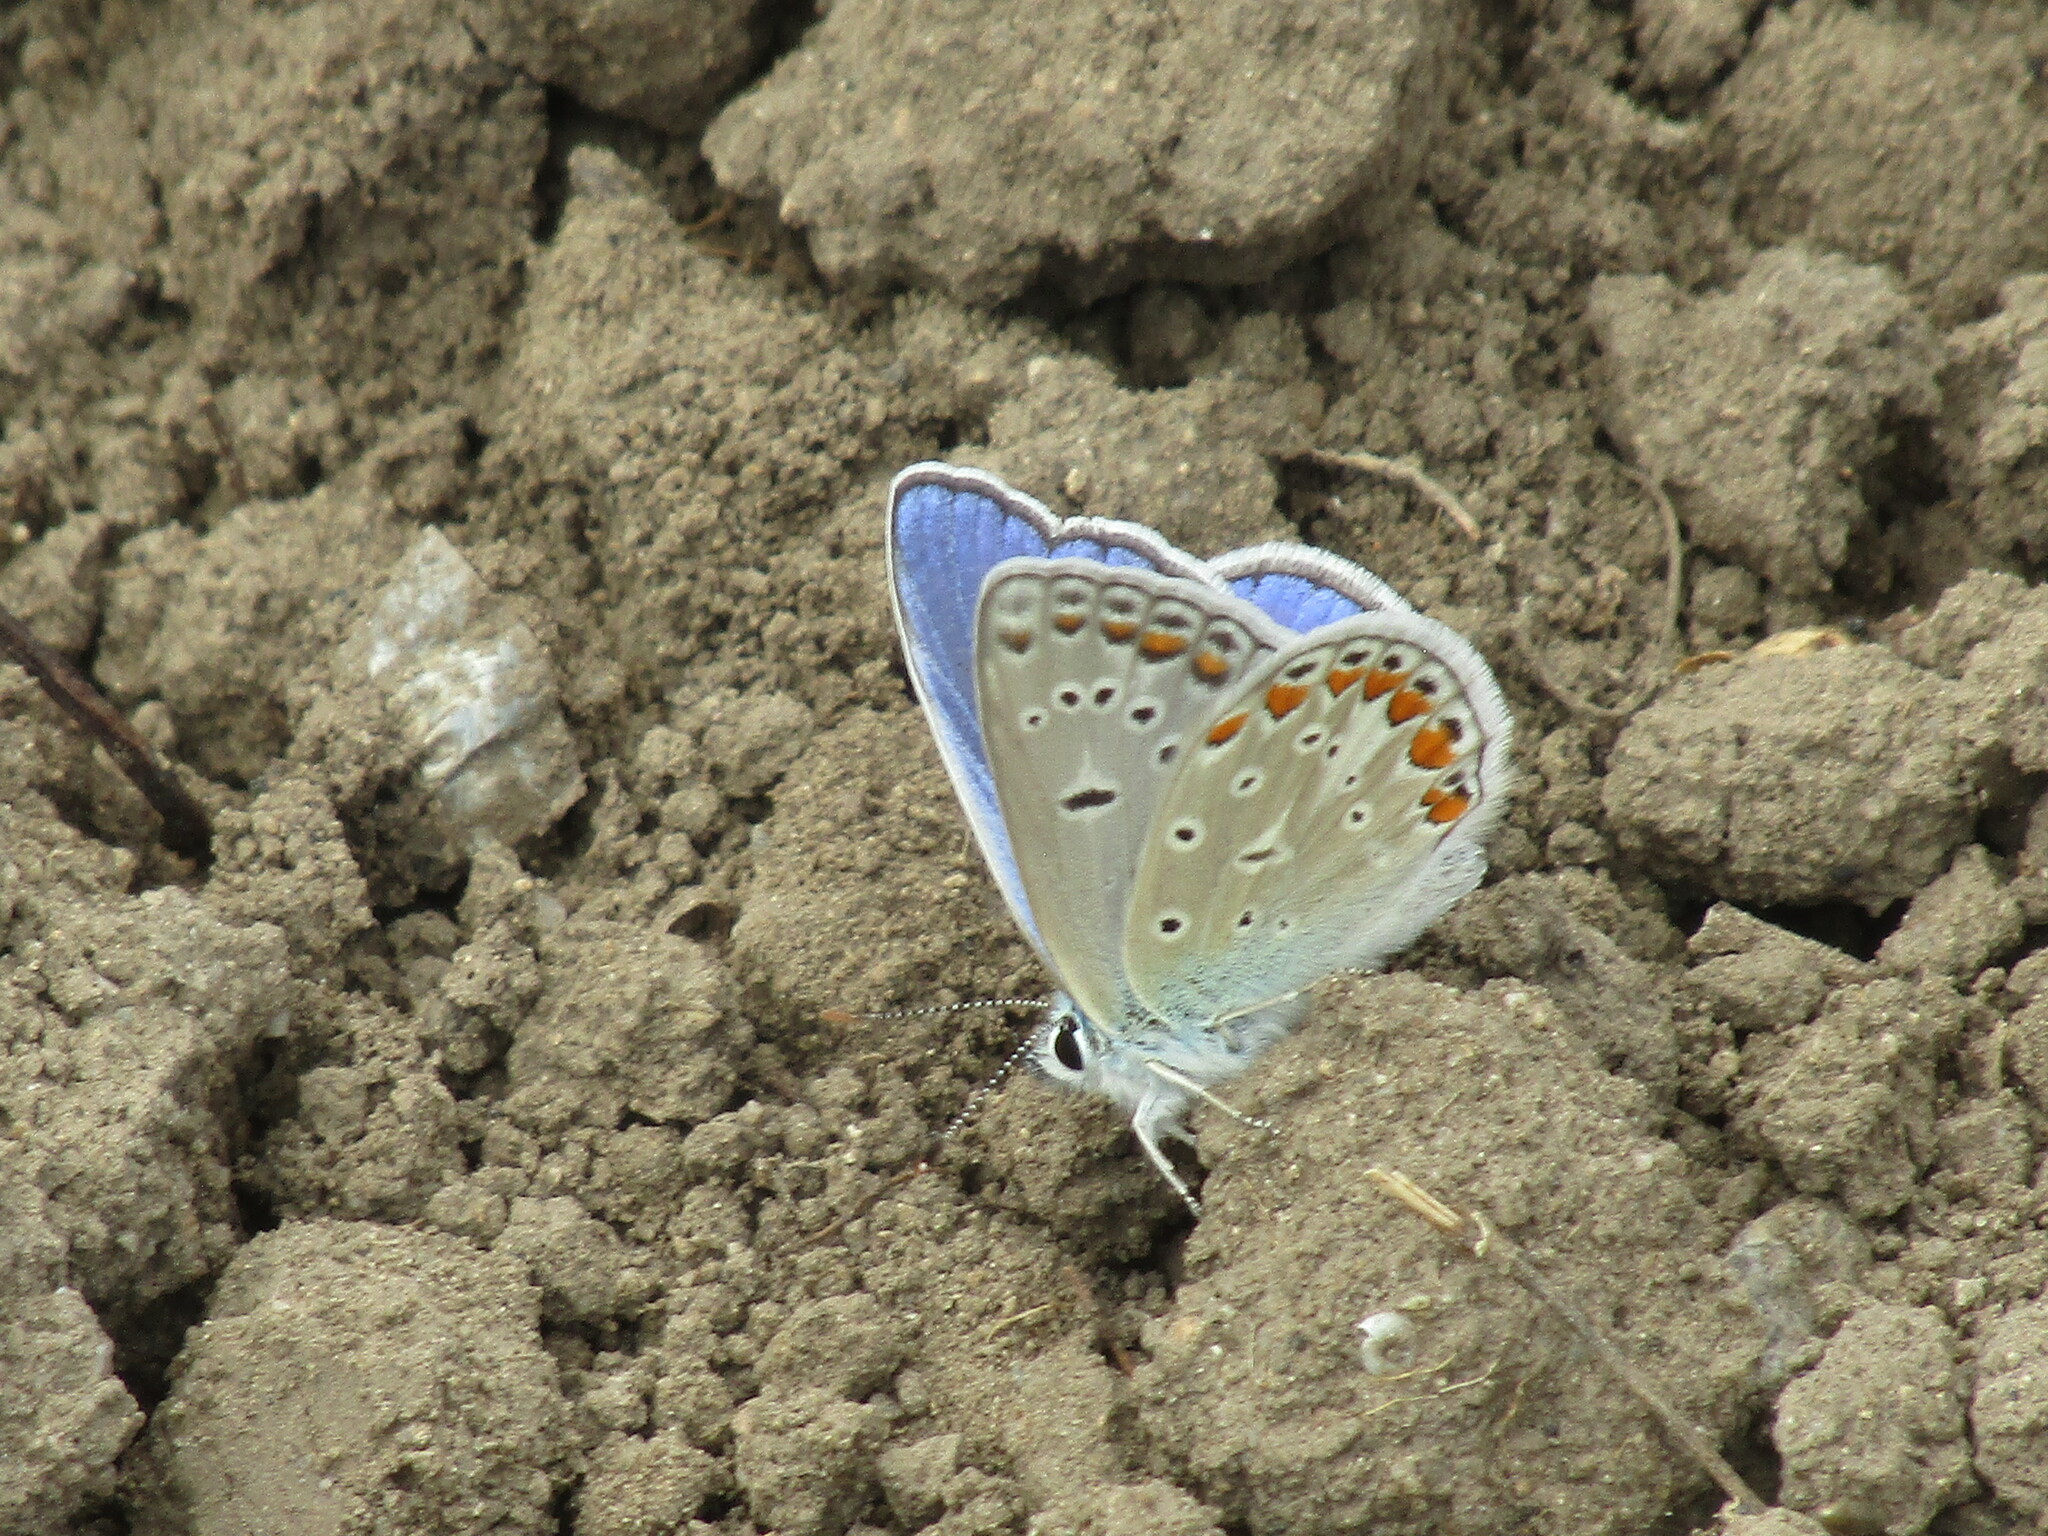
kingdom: Animalia
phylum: Arthropoda
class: Insecta
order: Lepidoptera
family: Lycaenidae
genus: Polyommatus
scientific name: Polyommatus
